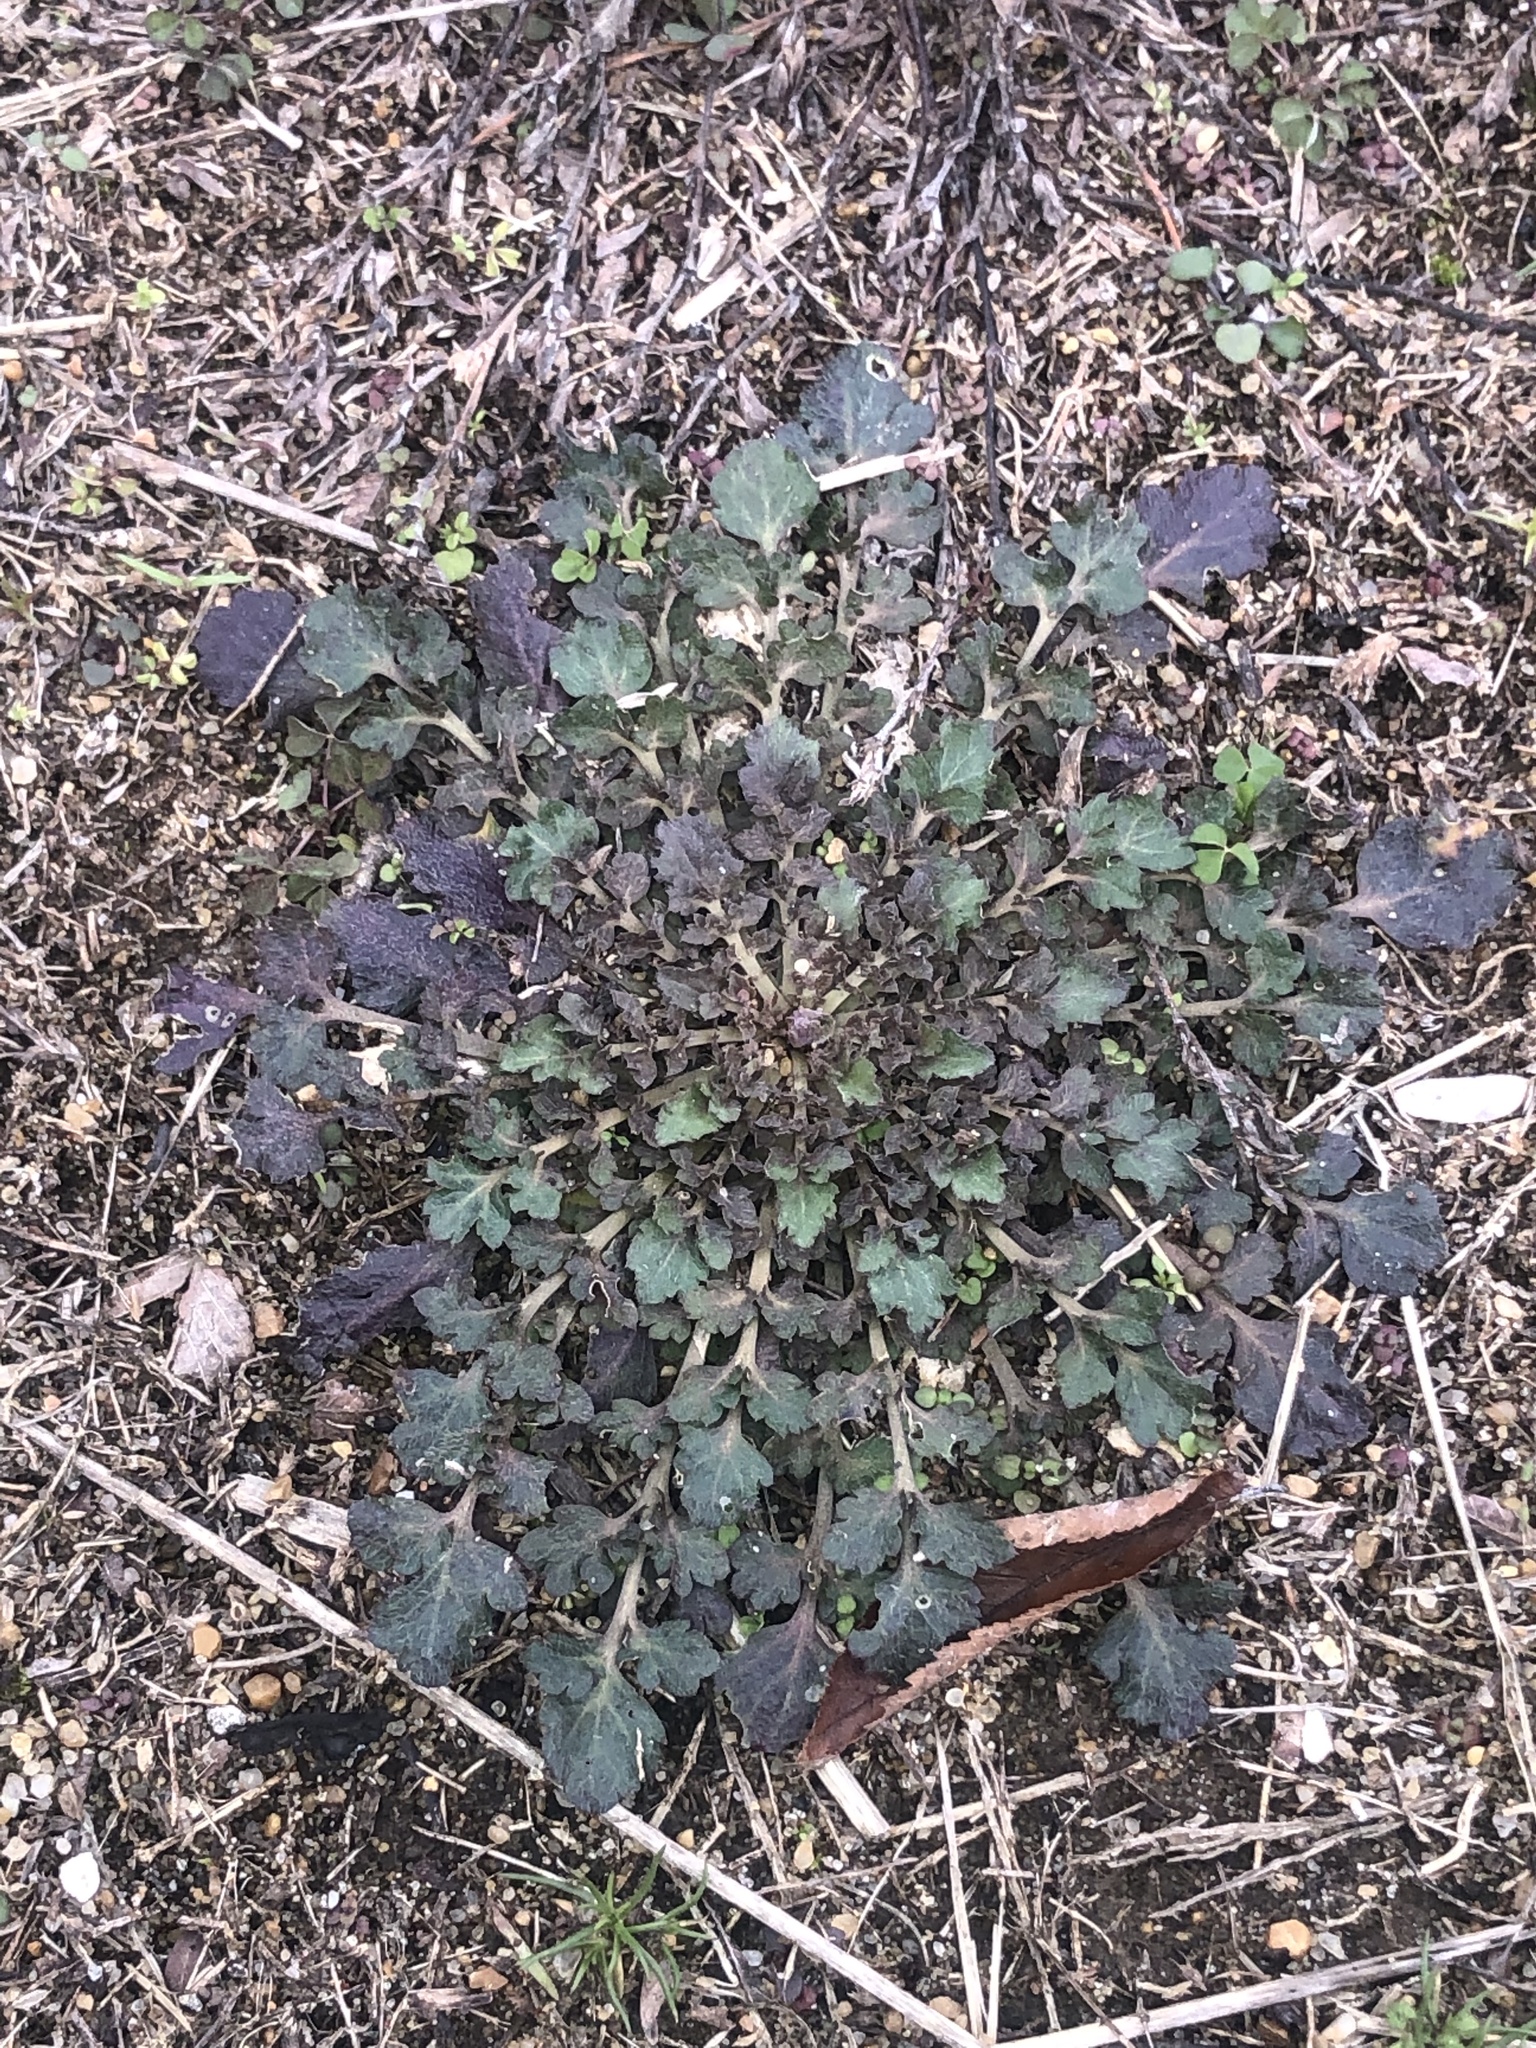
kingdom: Plantae
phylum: Tracheophyta
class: Magnoliopsida
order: Asterales
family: Asteraceae
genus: Packera
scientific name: Packera glabella
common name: Butterweed
